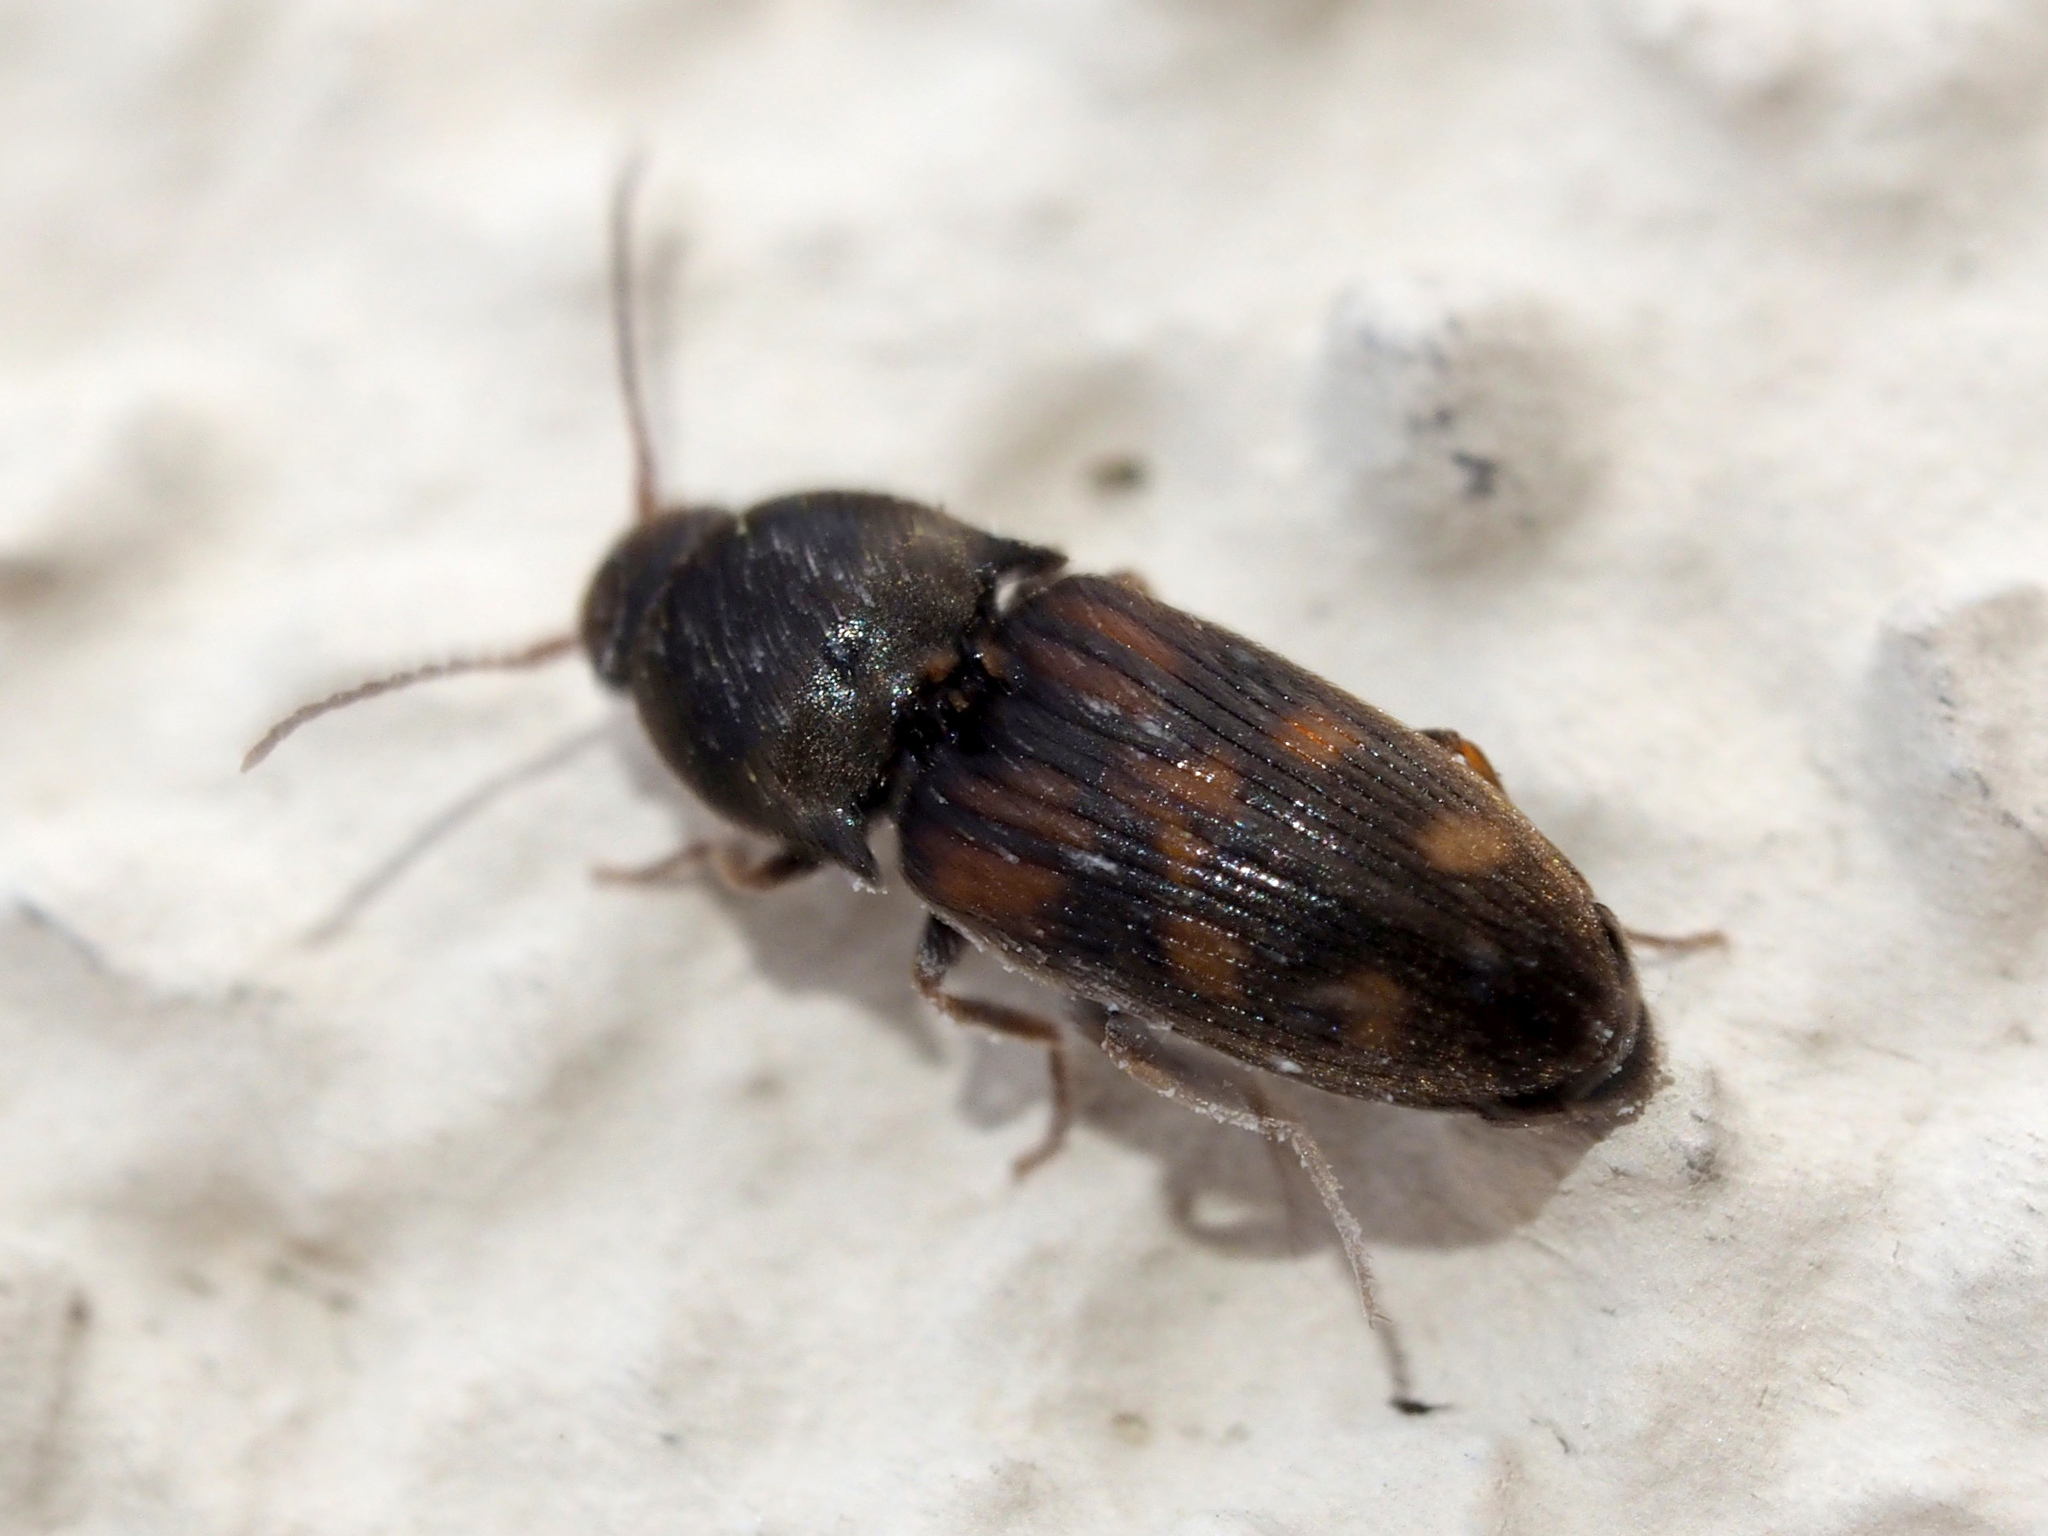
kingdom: Animalia
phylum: Arthropoda
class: Insecta
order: Coleoptera
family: Elateridae
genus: Drasterius
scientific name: Drasterius bimaculatus
